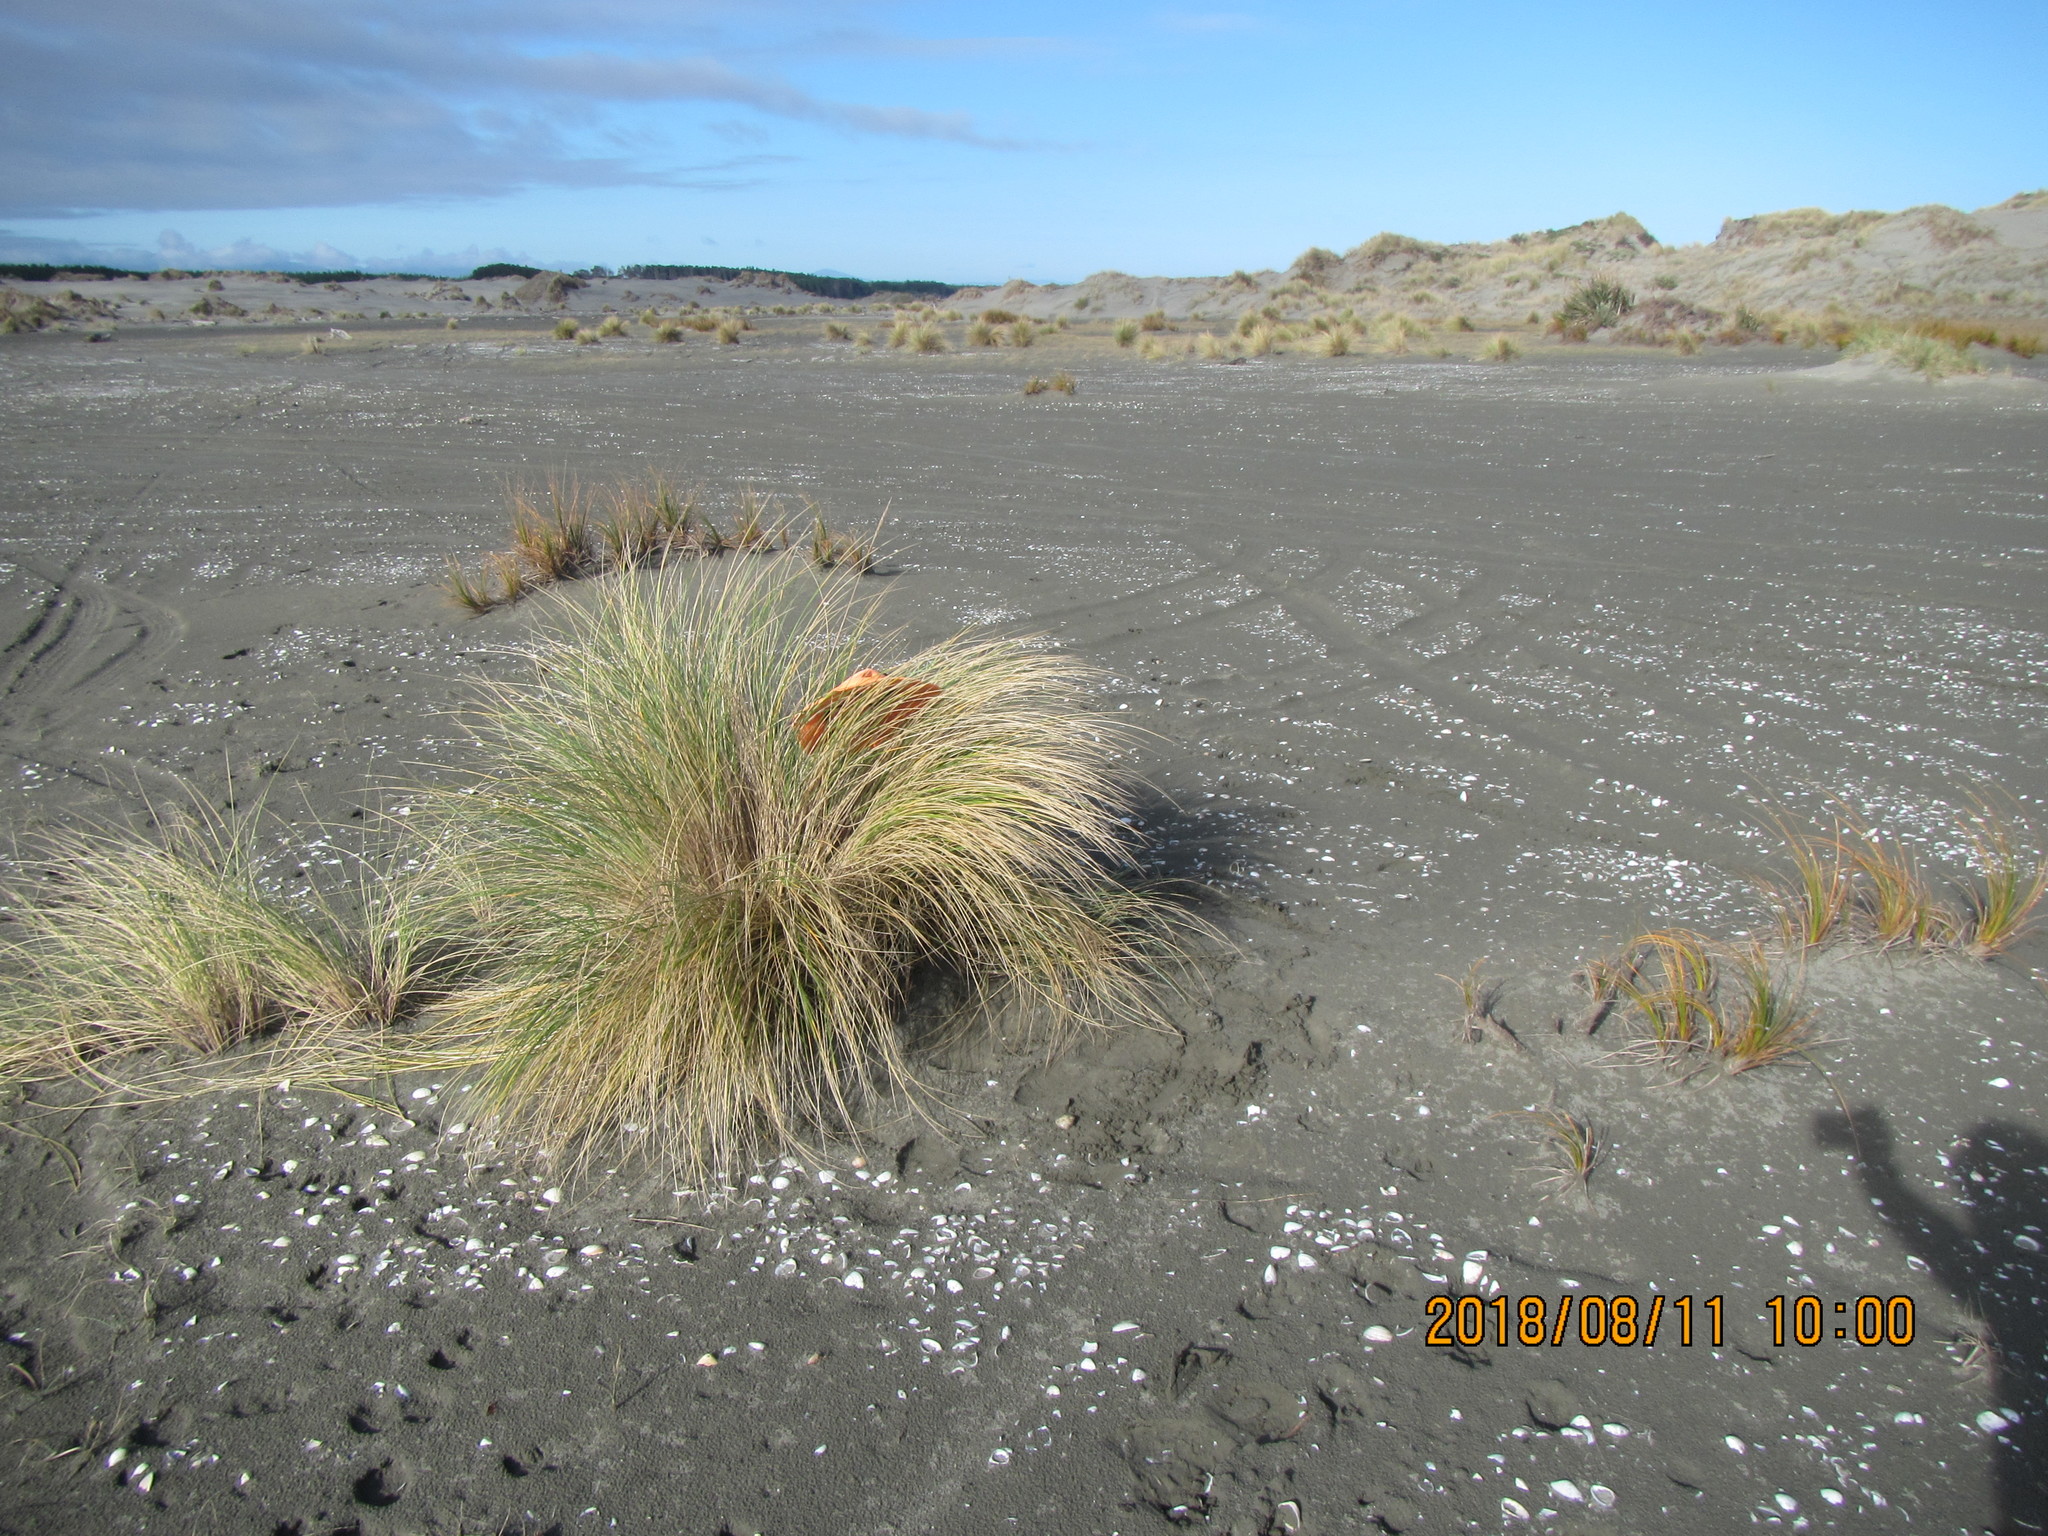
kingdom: Animalia
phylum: Arthropoda
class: Insecta
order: Hymenoptera
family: Ichneumonidae
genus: Ichneumon
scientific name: Ichneumon promissorius
